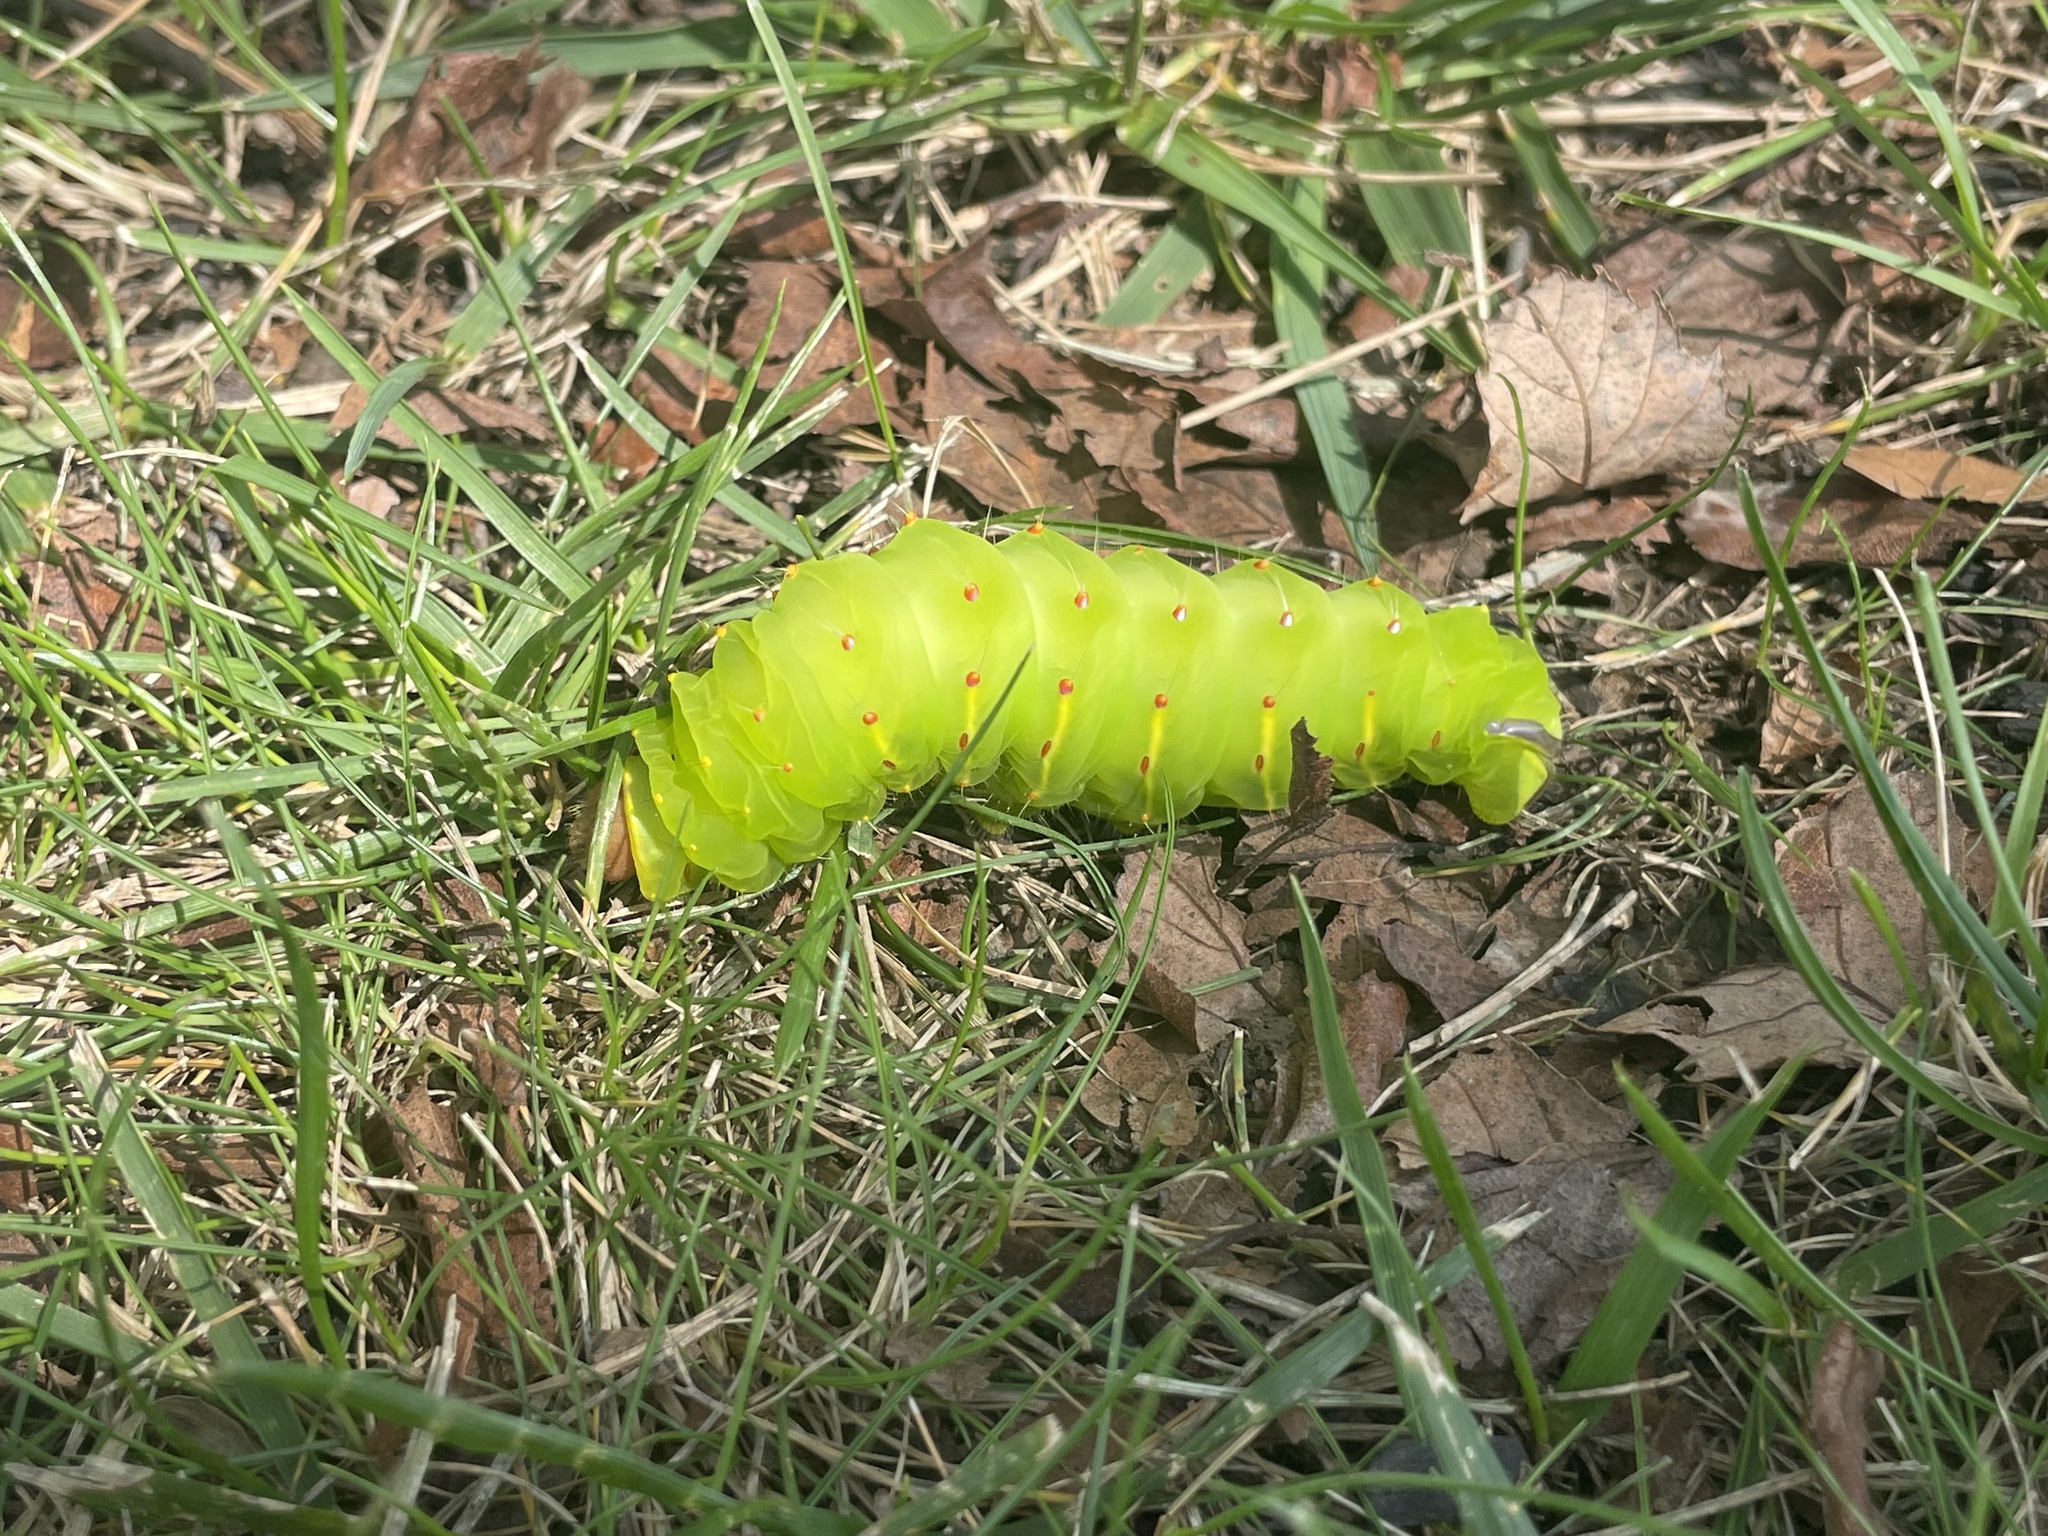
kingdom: Animalia
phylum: Arthropoda
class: Insecta
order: Lepidoptera
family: Saturniidae
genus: Antheraea
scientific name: Antheraea polyphemus
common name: Polyphemus moth
